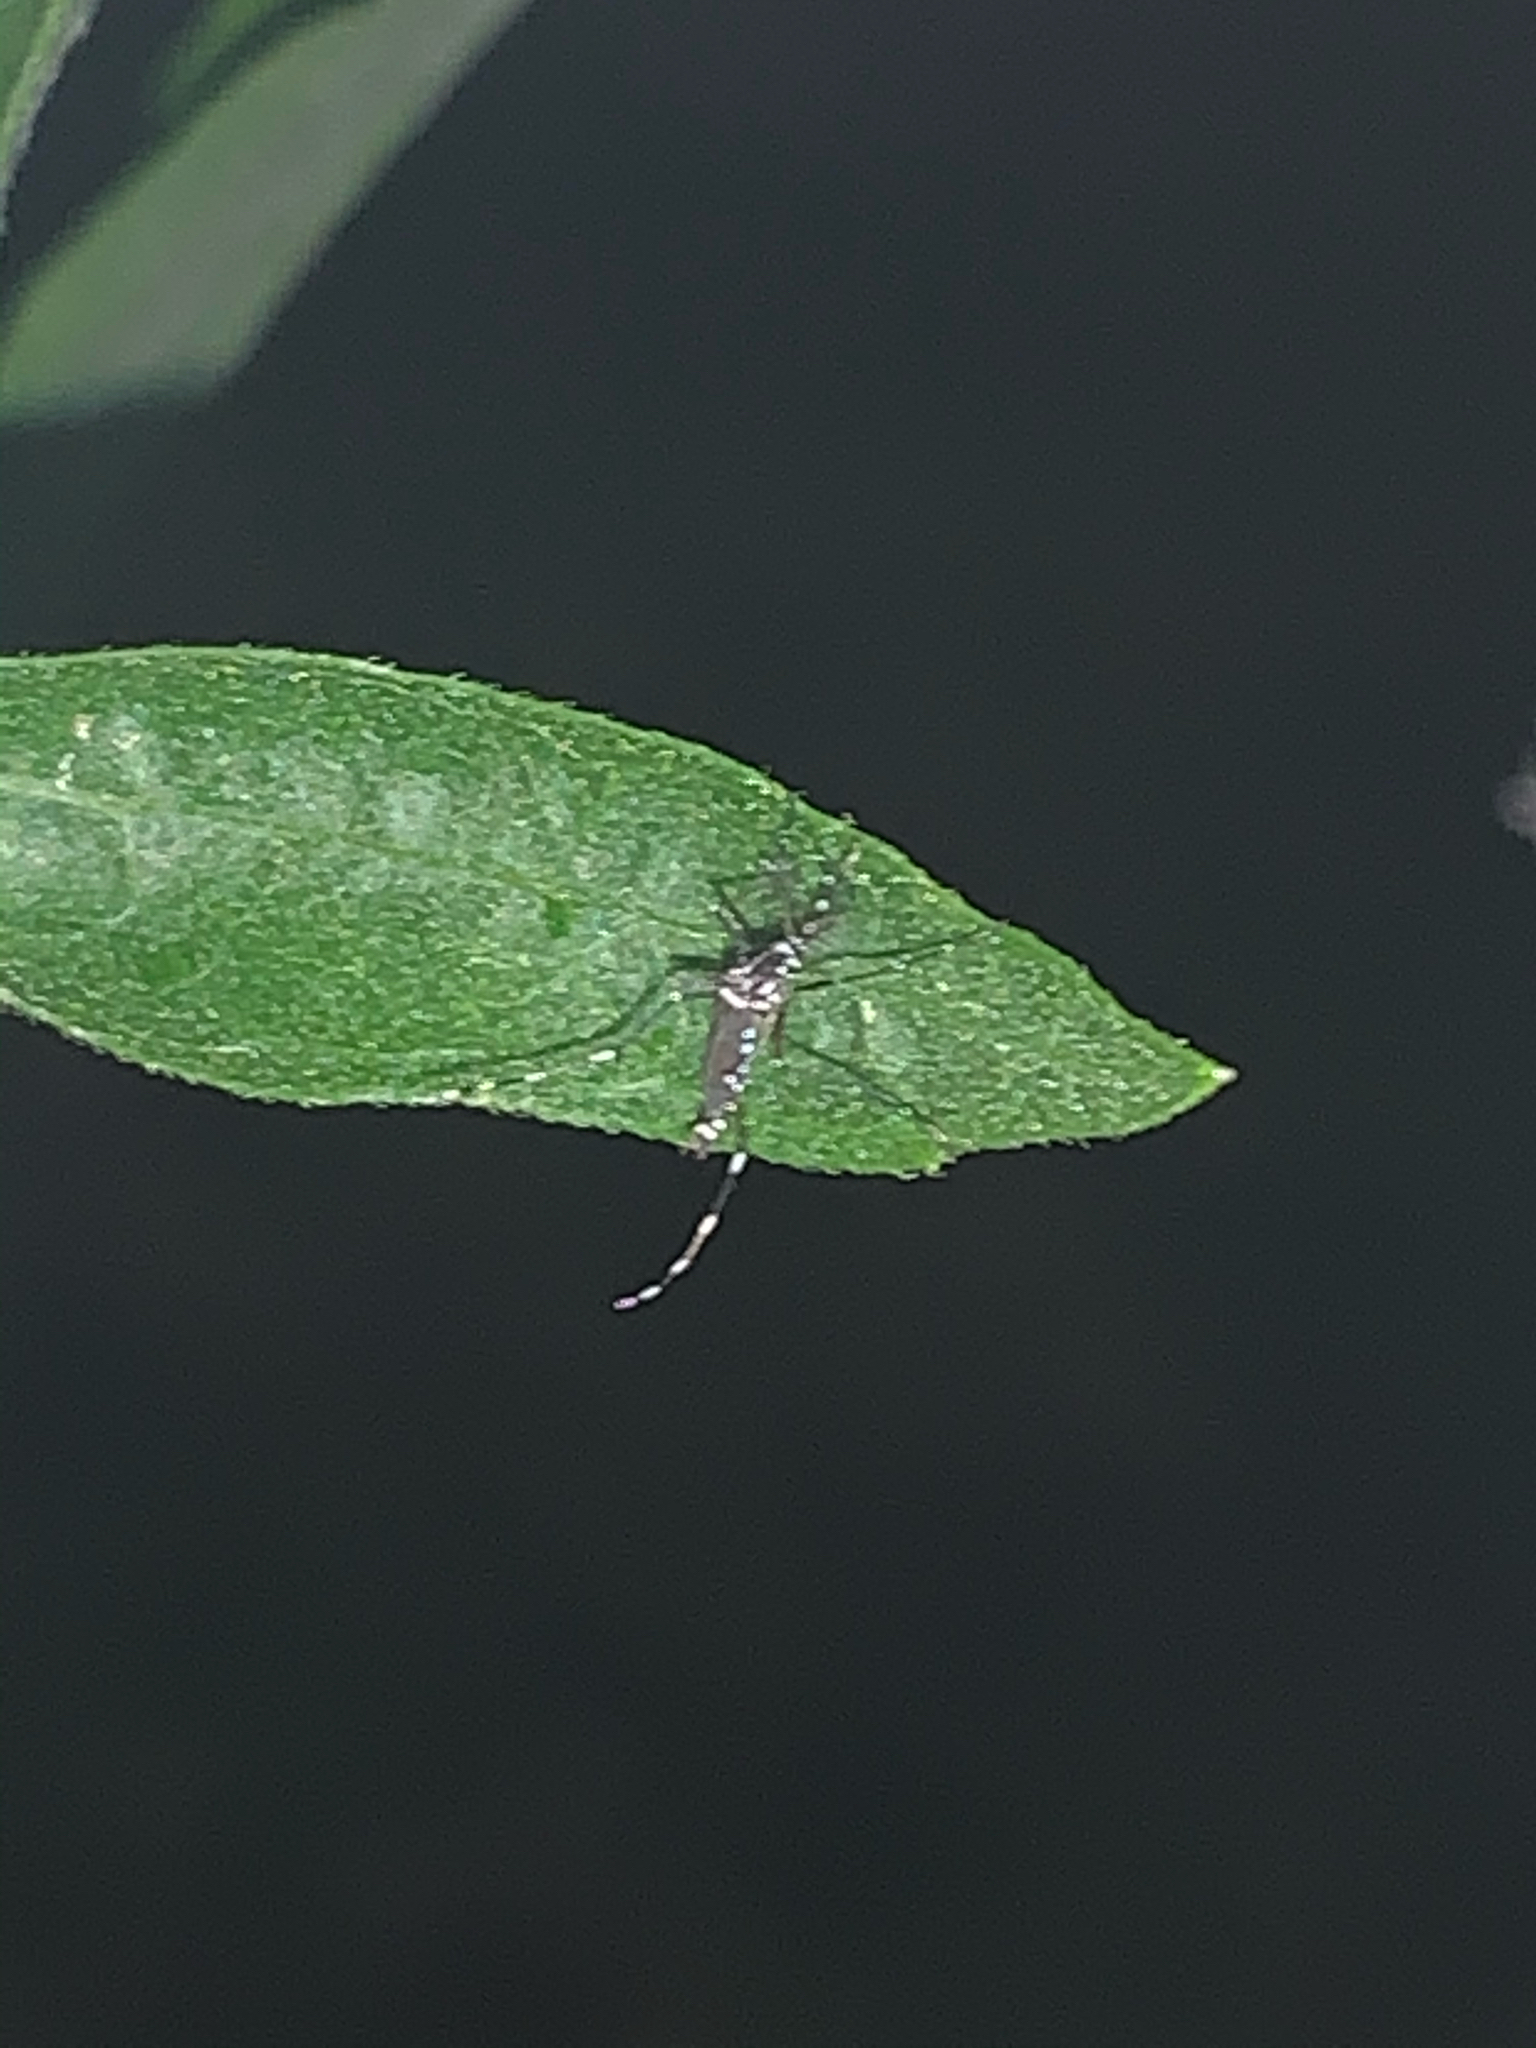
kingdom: Animalia
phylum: Arthropoda
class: Insecta
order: Diptera
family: Culicidae
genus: Aedes
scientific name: Aedes albopictus
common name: Tiger mosquito
